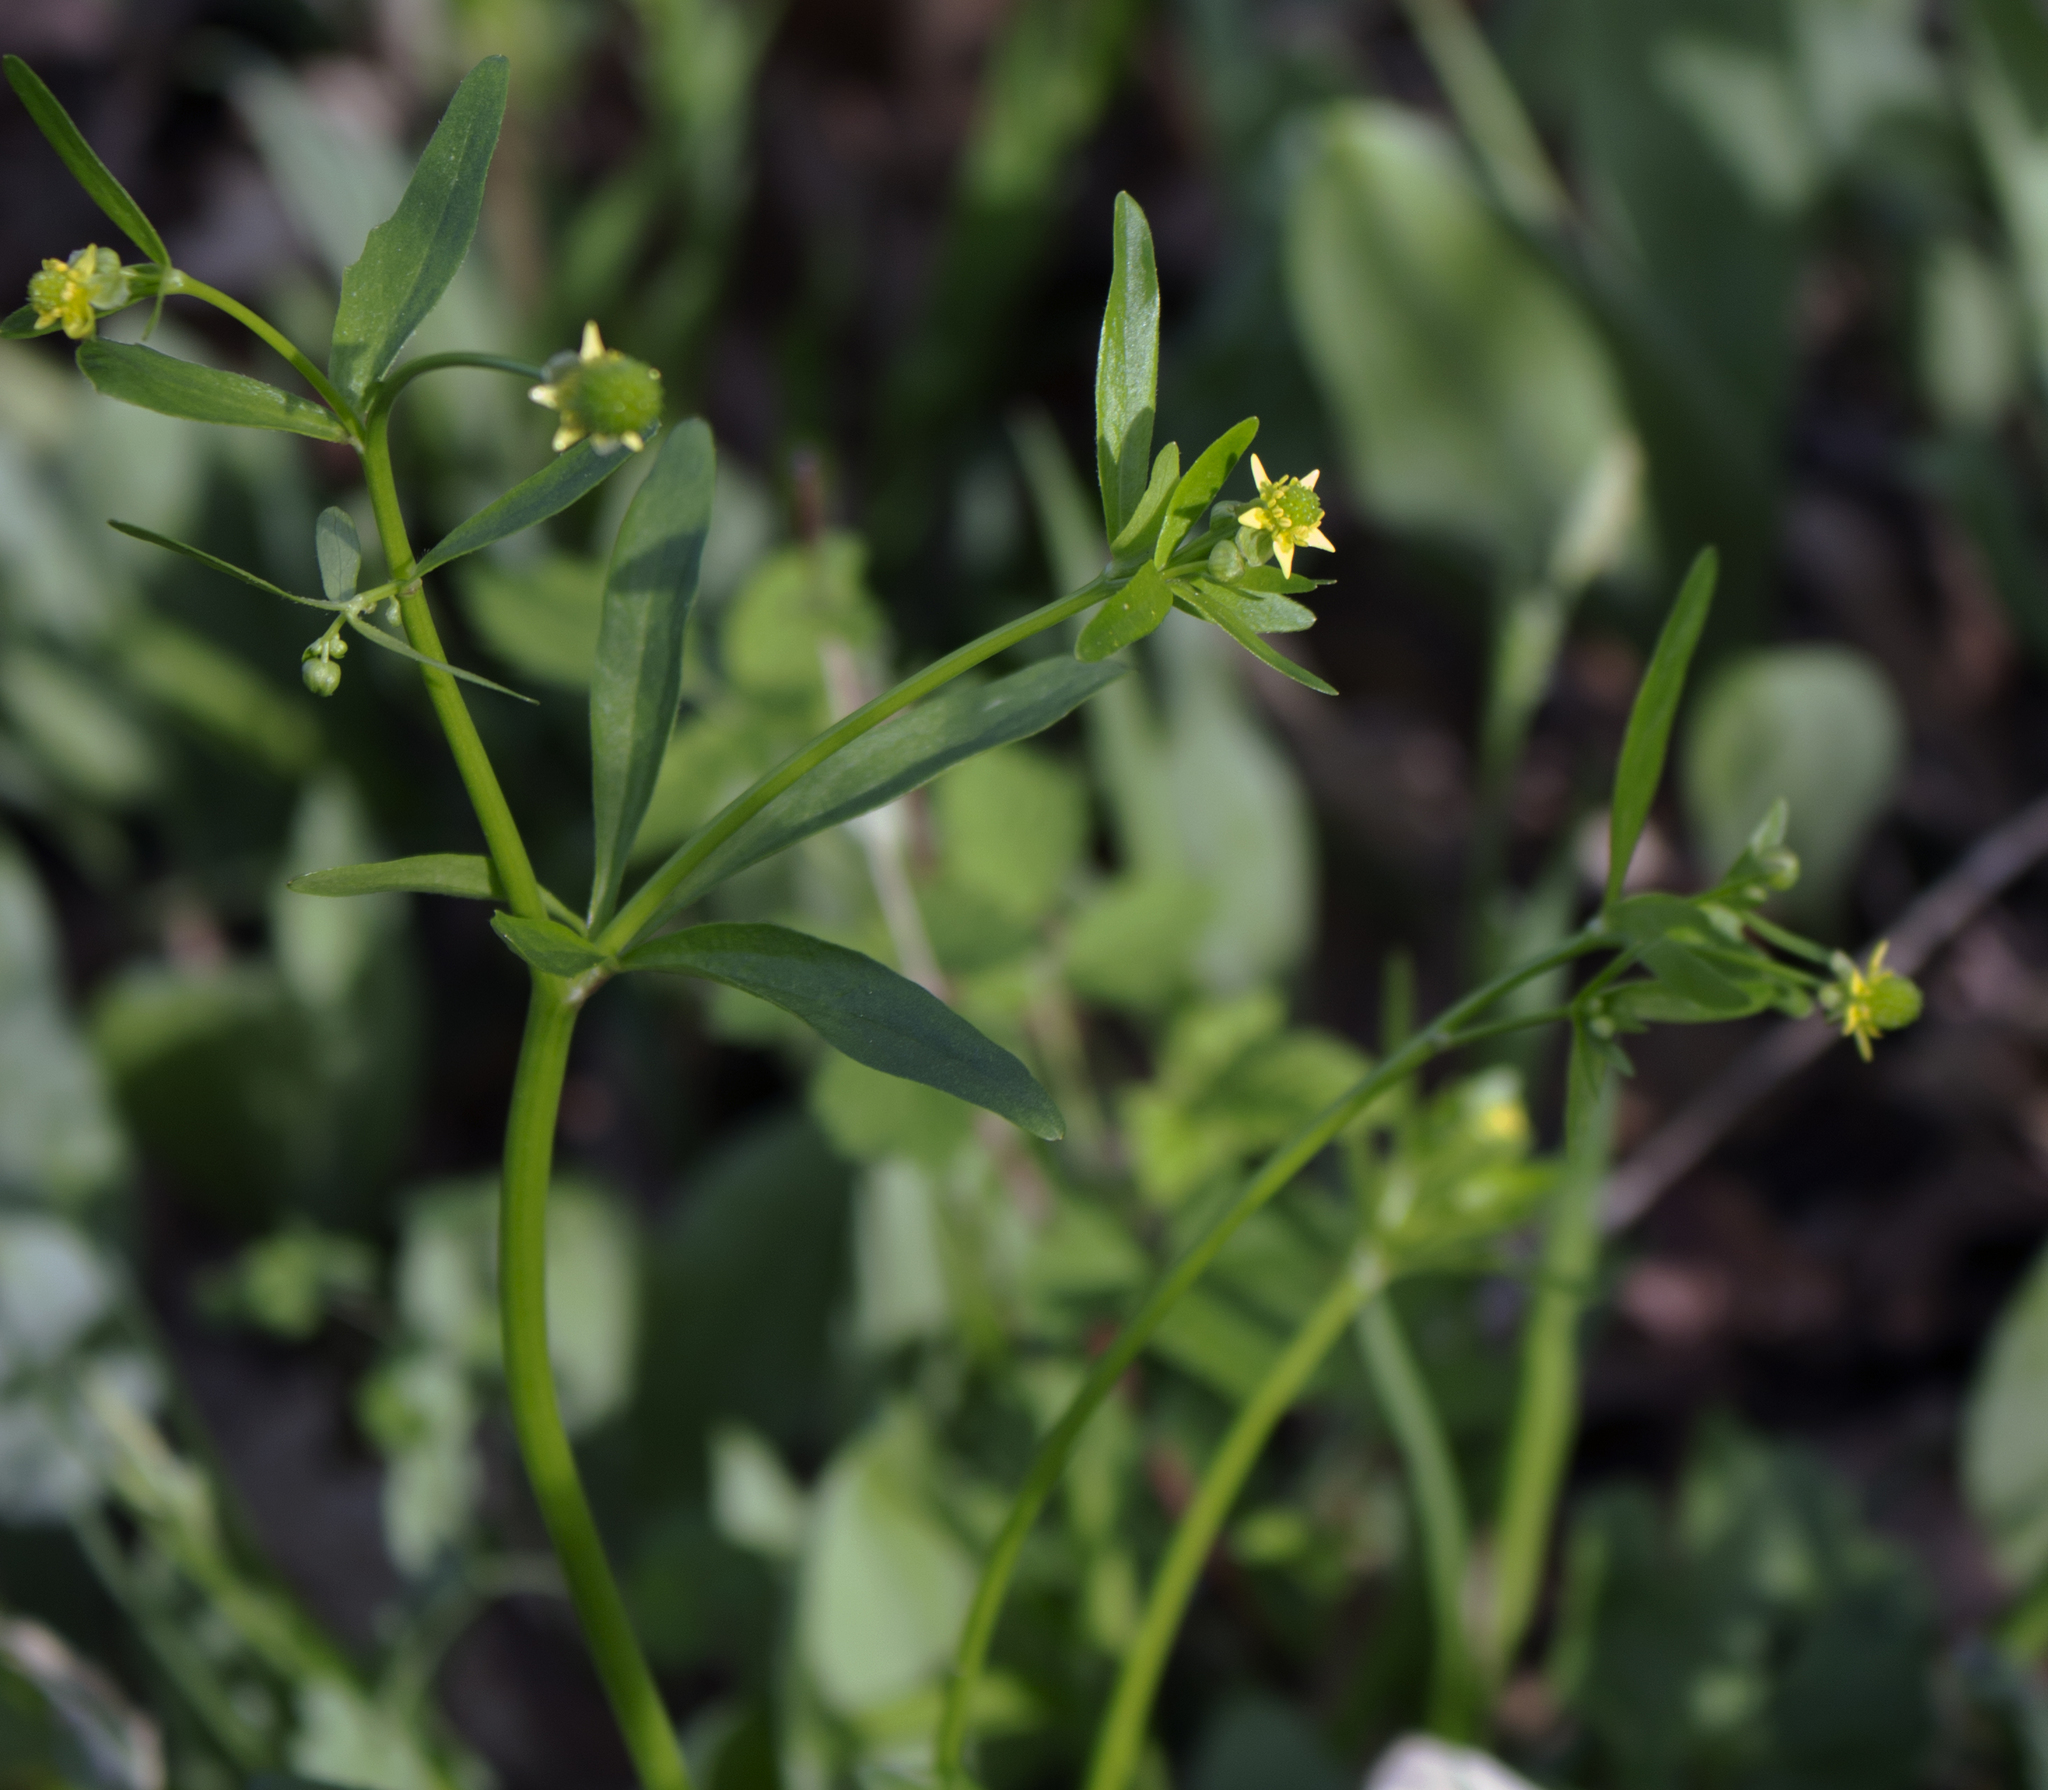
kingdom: Plantae
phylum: Tracheophyta
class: Magnoliopsida
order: Ranunculales
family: Ranunculaceae
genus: Ranunculus
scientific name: Ranunculus abortivus
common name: Early wood buttercup
